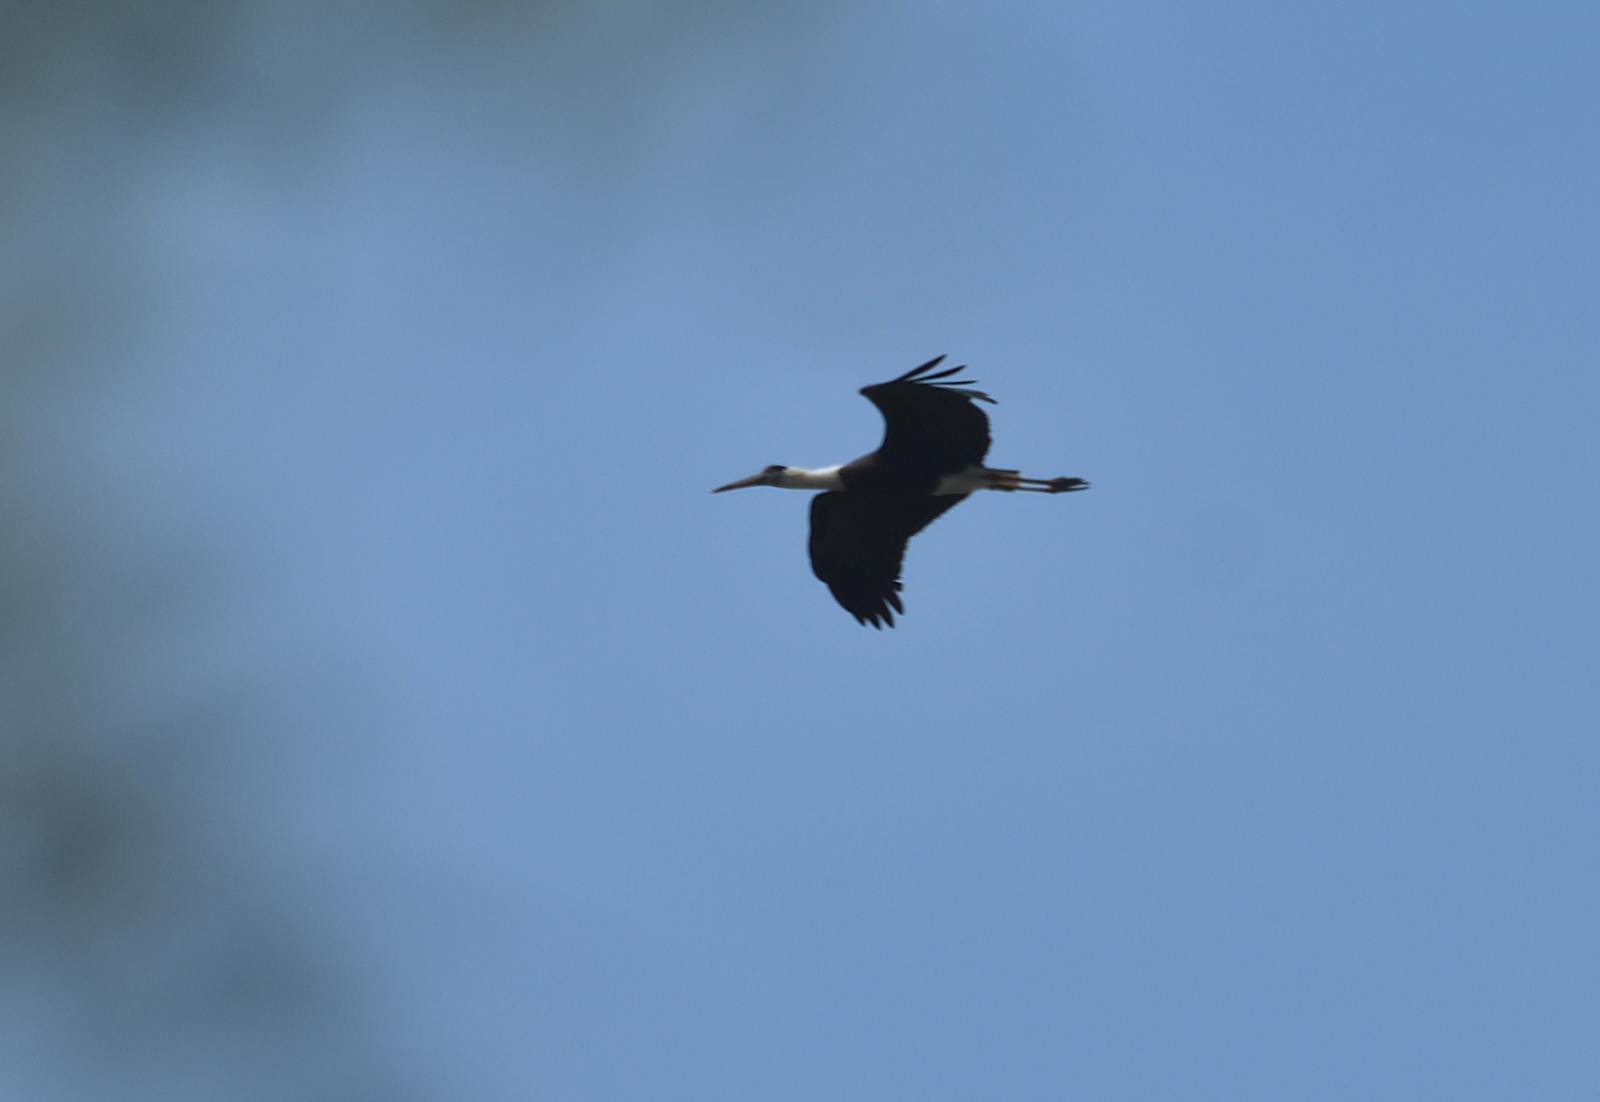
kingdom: Animalia
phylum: Chordata
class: Aves
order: Ciconiiformes
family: Ciconiidae
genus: Ciconia
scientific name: Ciconia episcopus
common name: Woolly-necked stork
